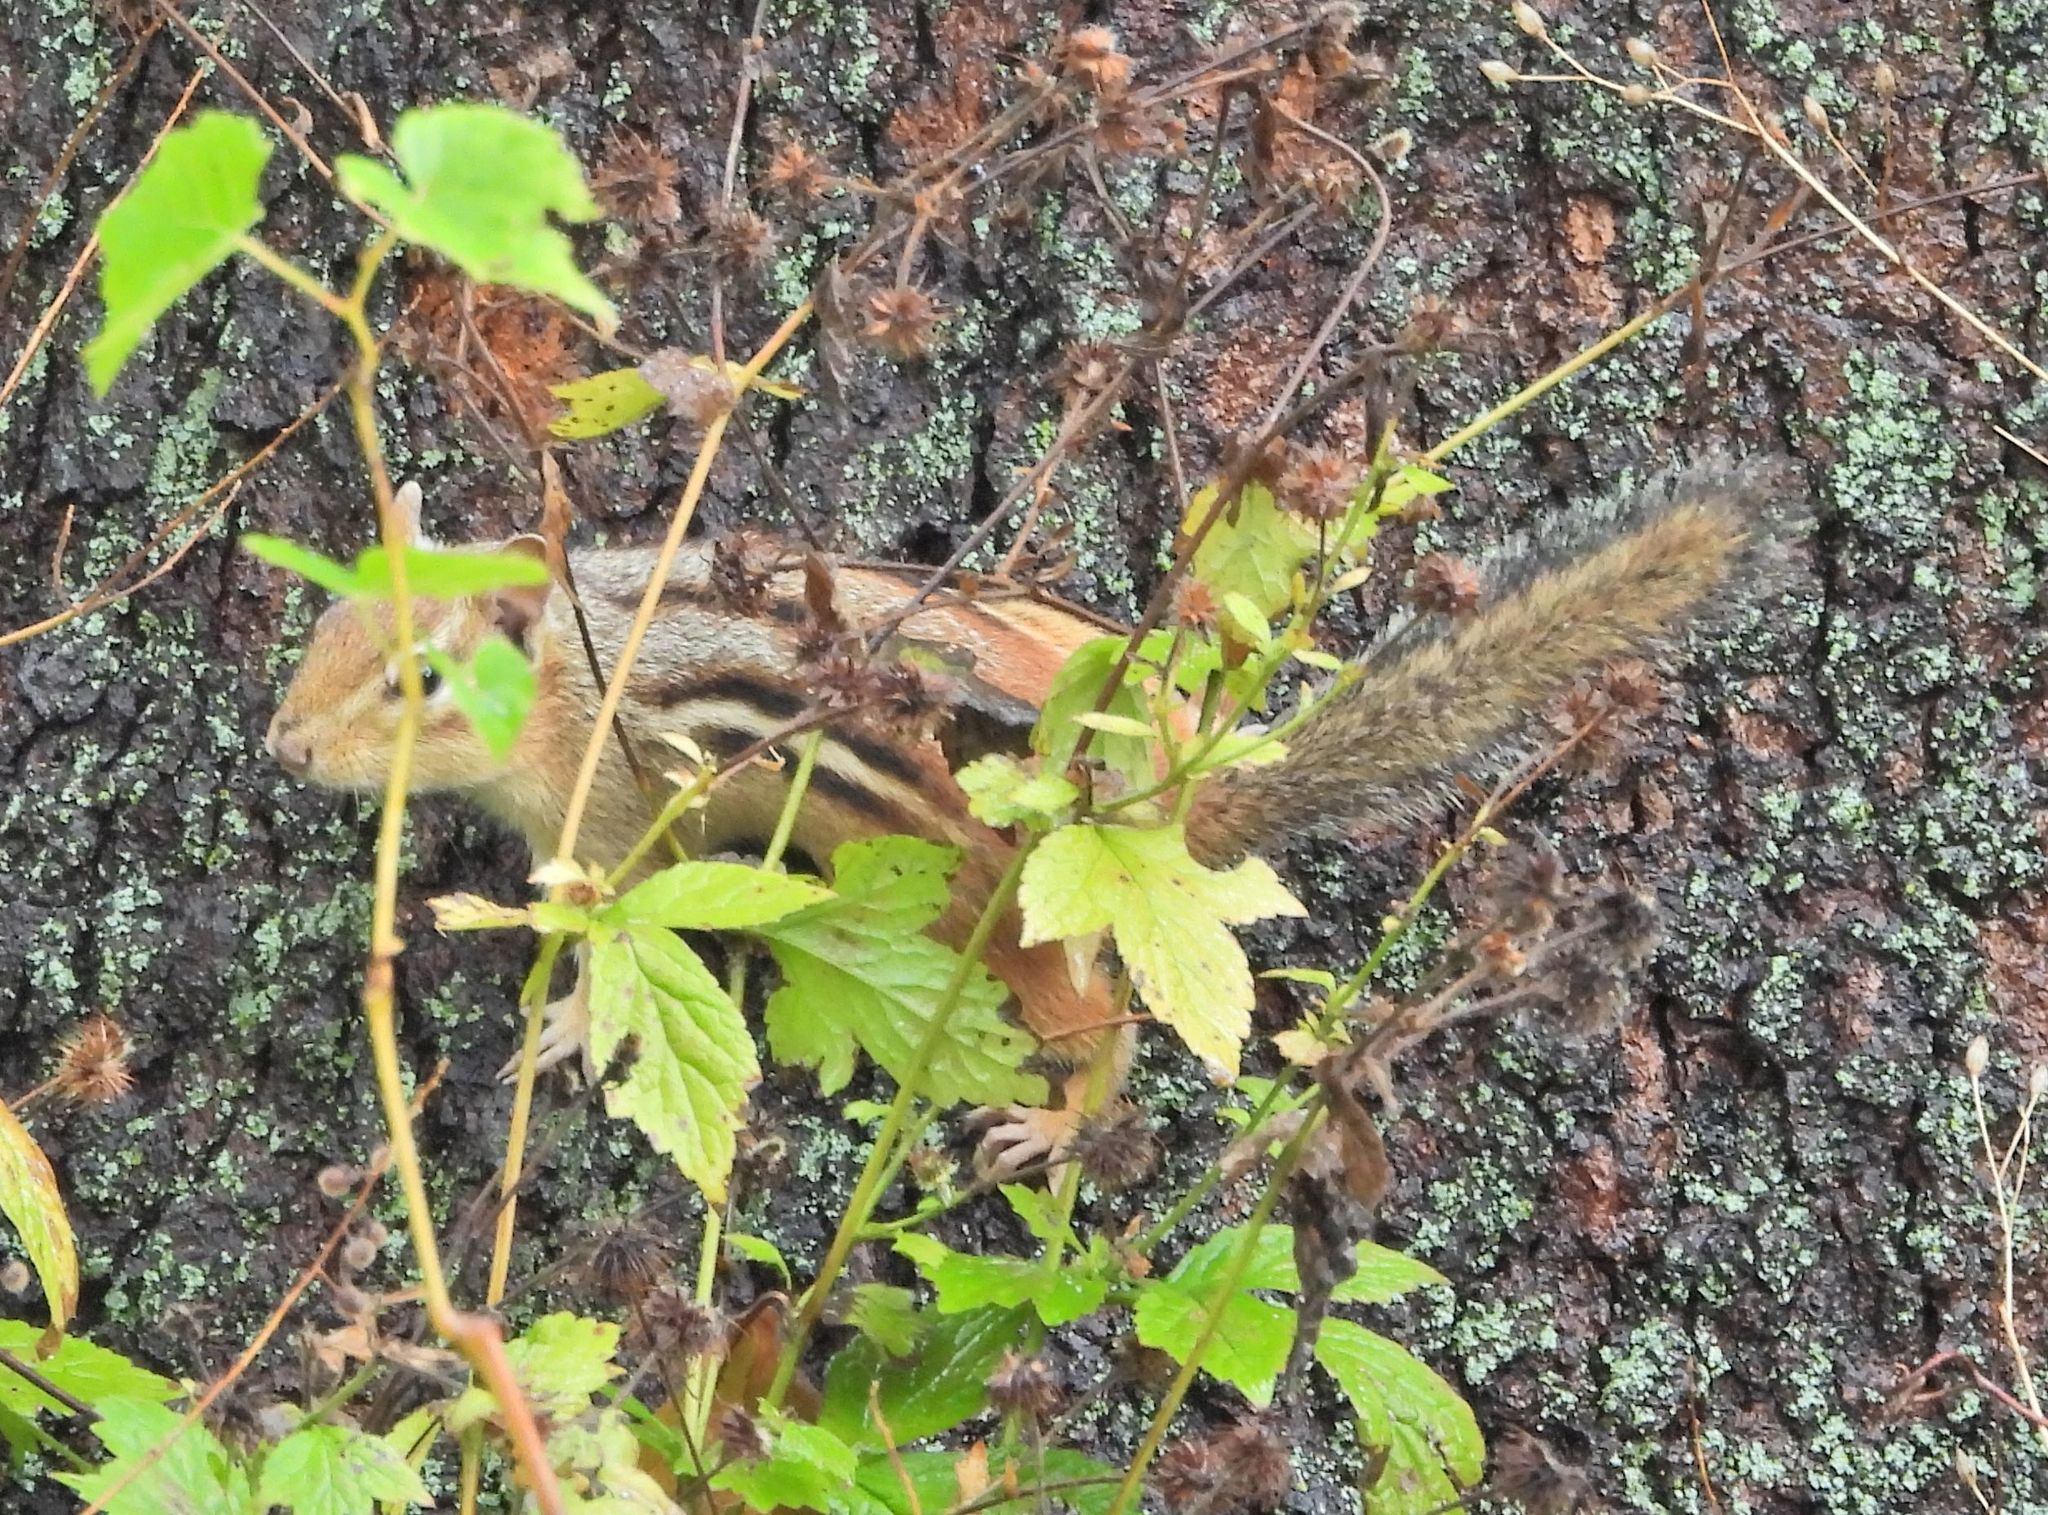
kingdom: Animalia
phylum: Chordata
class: Mammalia
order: Rodentia
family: Sciuridae
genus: Tamias
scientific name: Tamias striatus
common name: Eastern chipmunk
